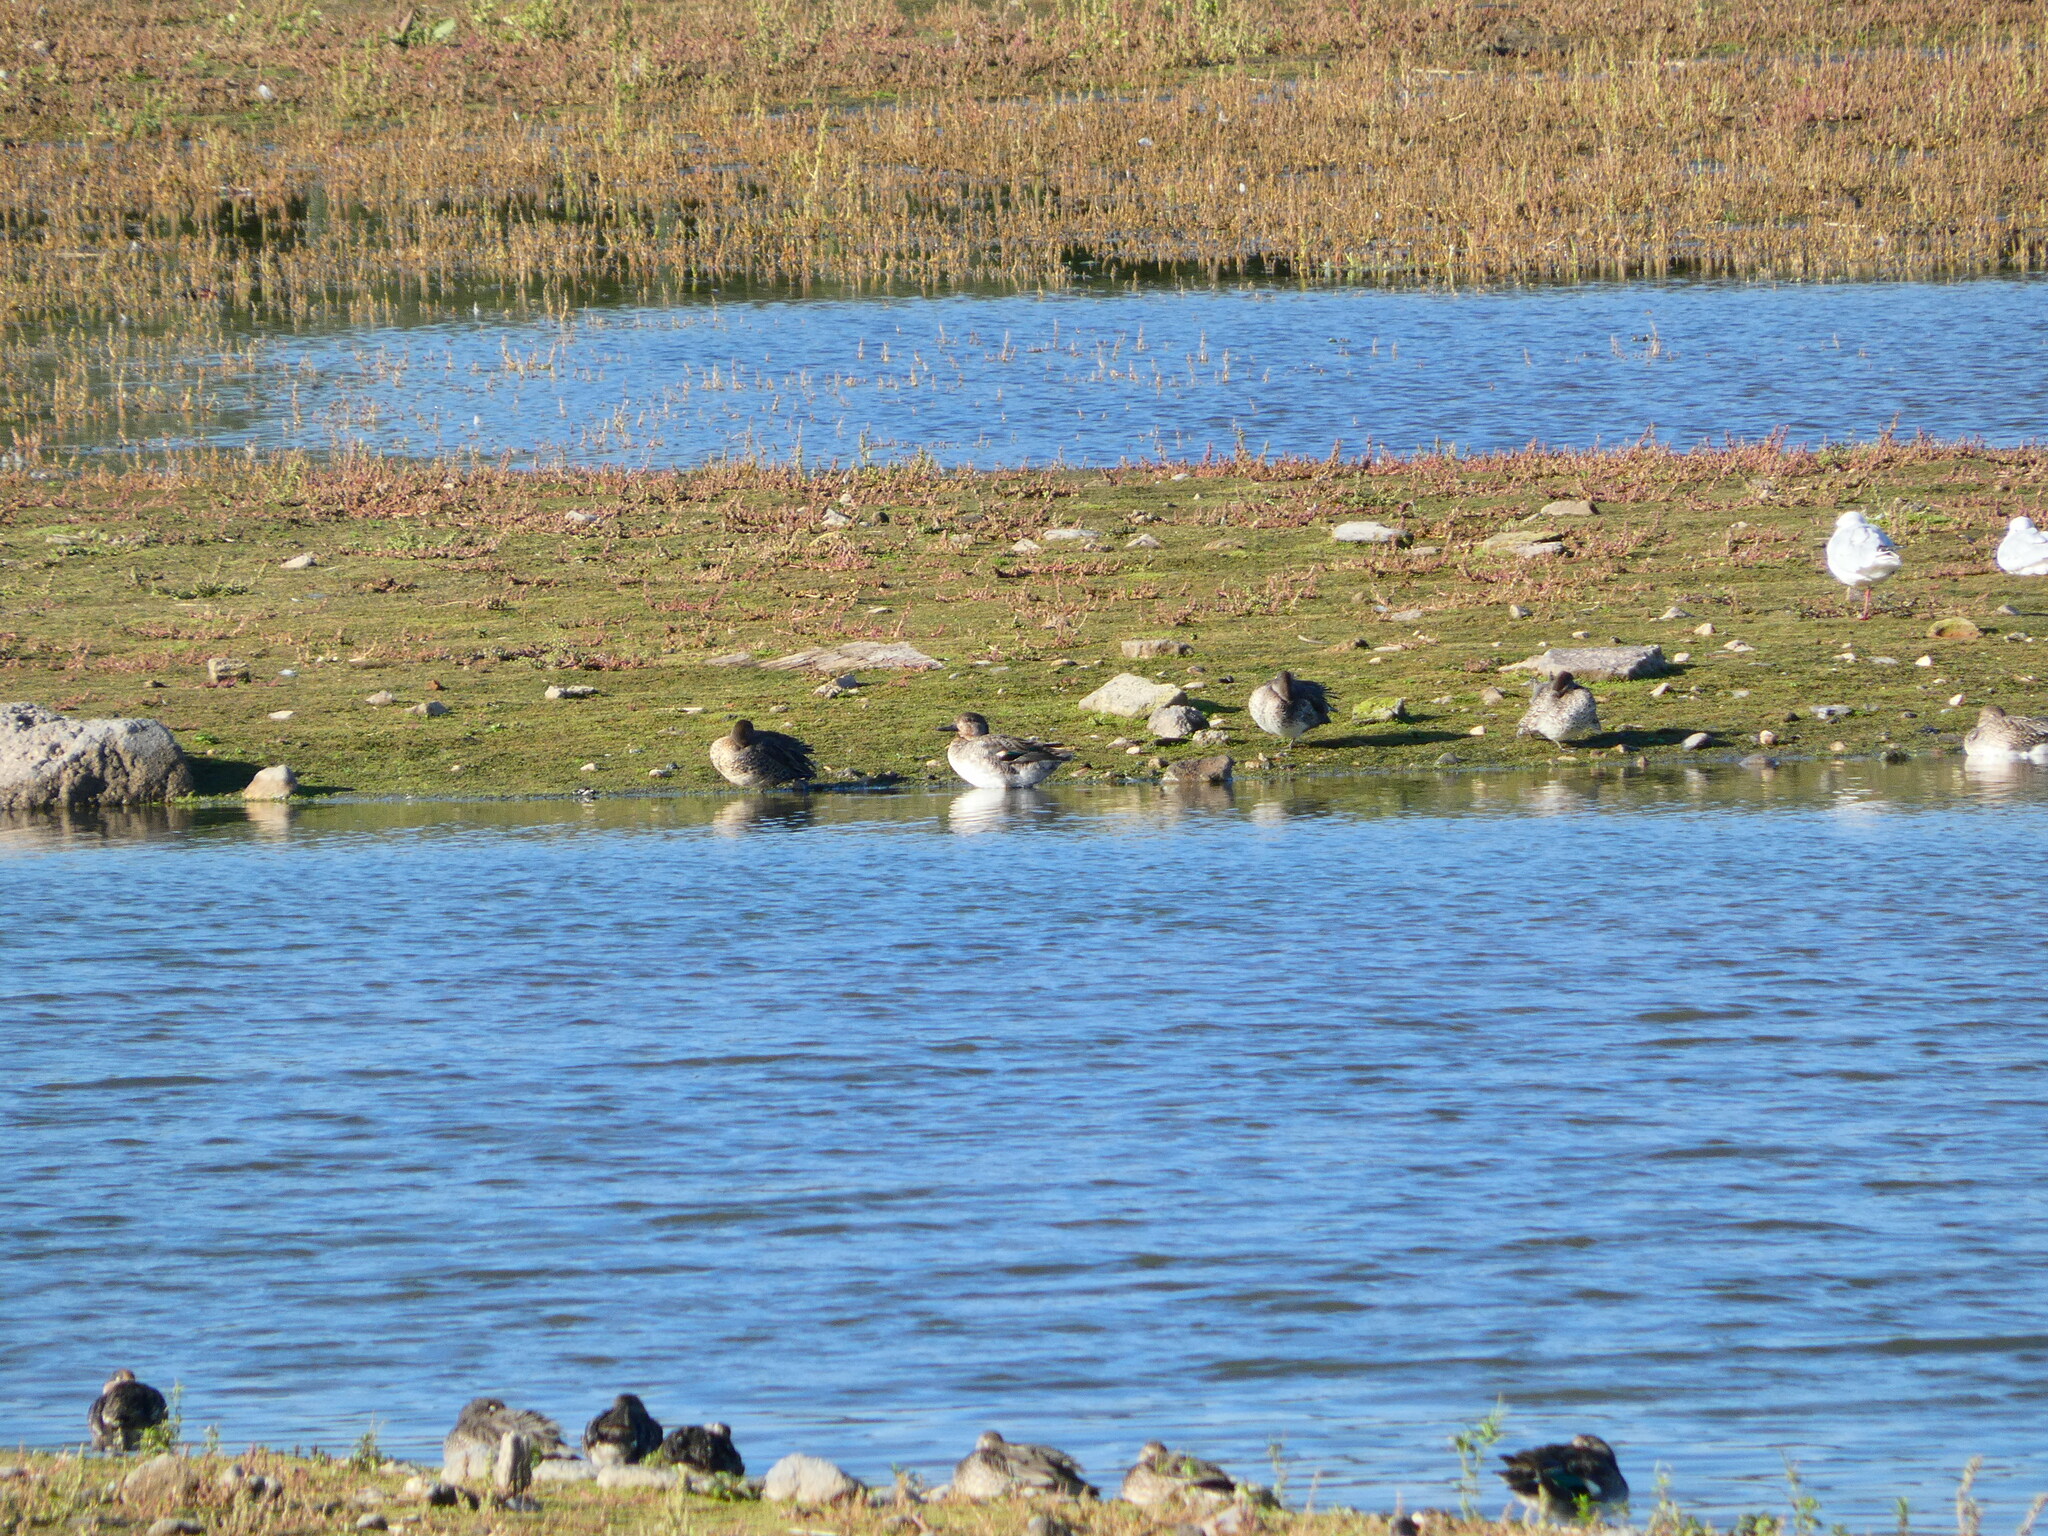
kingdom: Animalia
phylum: Chordata
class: Aves
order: Anseriformes
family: Anatidae
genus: Anas
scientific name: Anas crecca
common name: Eurasian teal
